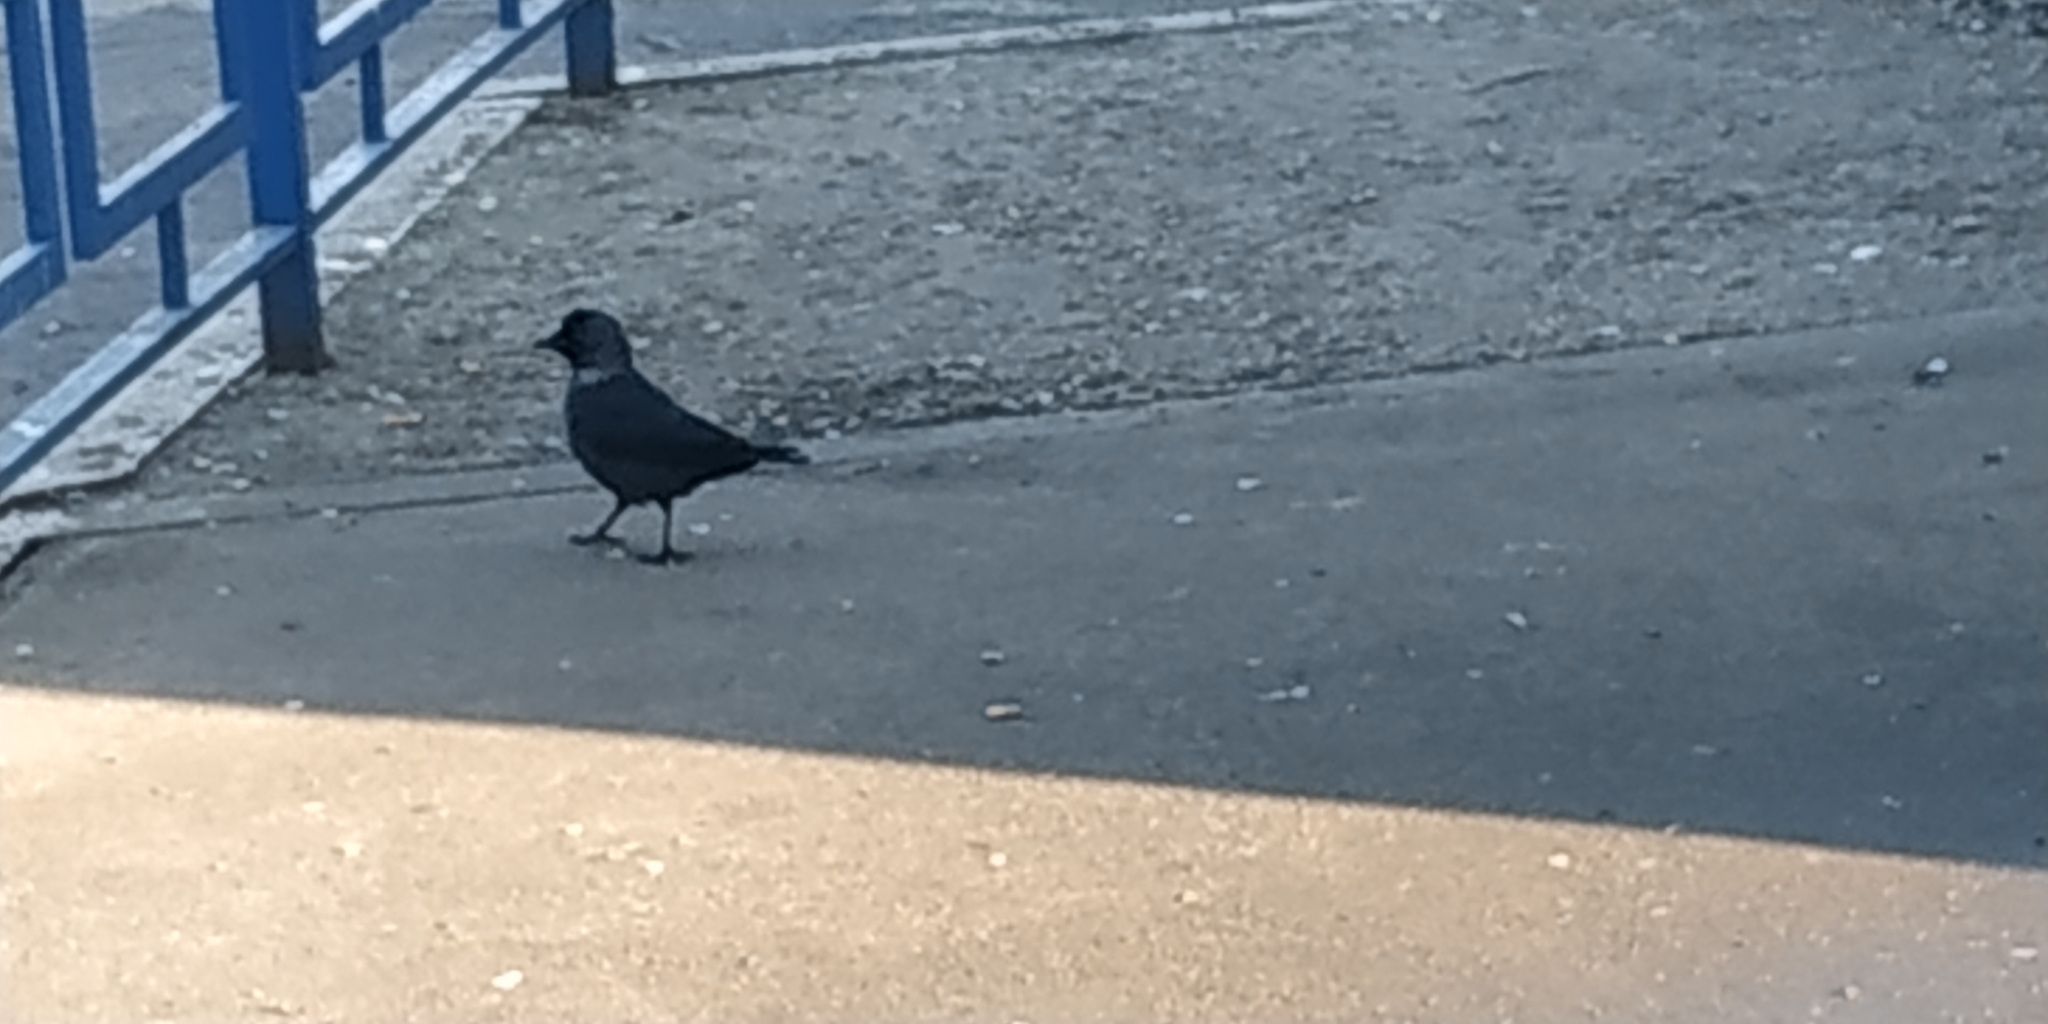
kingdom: Animalia
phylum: Chordata
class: Aves
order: Passeriformes
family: Corvidae
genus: Coloeus
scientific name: Coloeus monedula
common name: Western jackdaw
